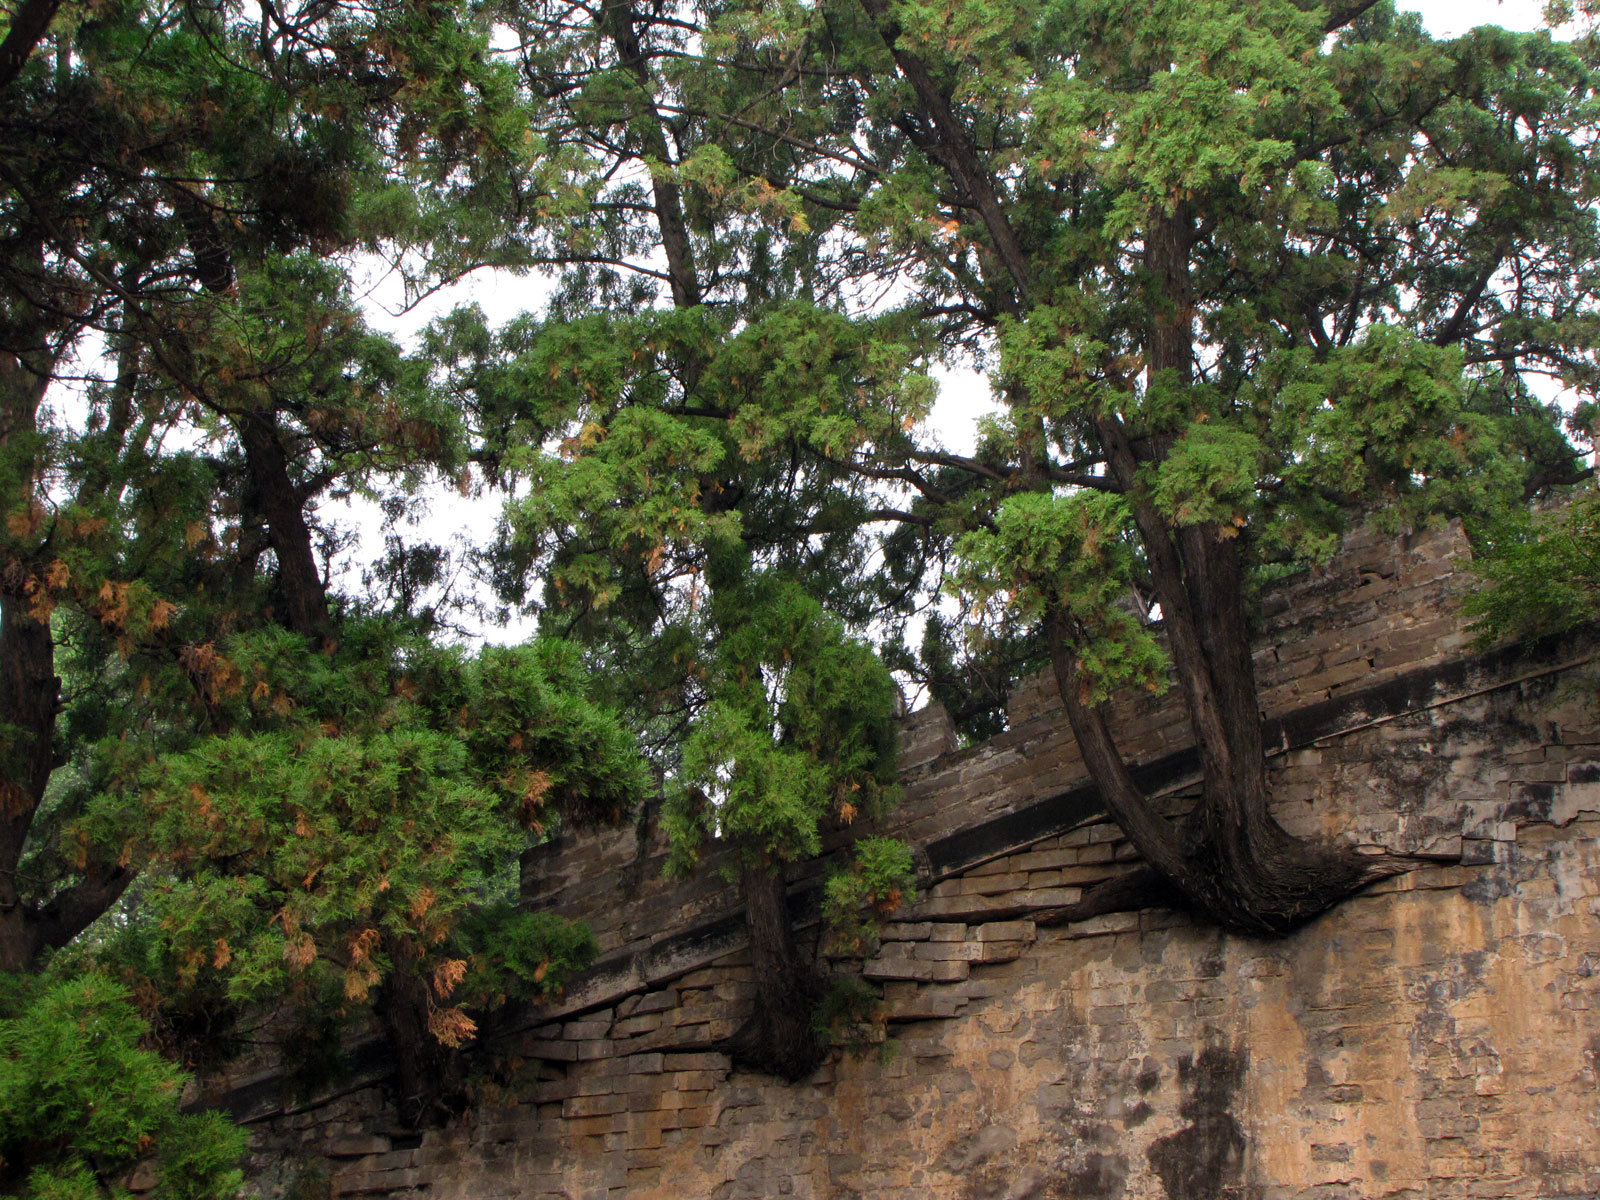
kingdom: Plantae
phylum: Tracheophyta
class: Pinopsida
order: Pinales
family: Cupressaceae
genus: Platycladus
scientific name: Platycladus orientalis
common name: Chinese thuja
